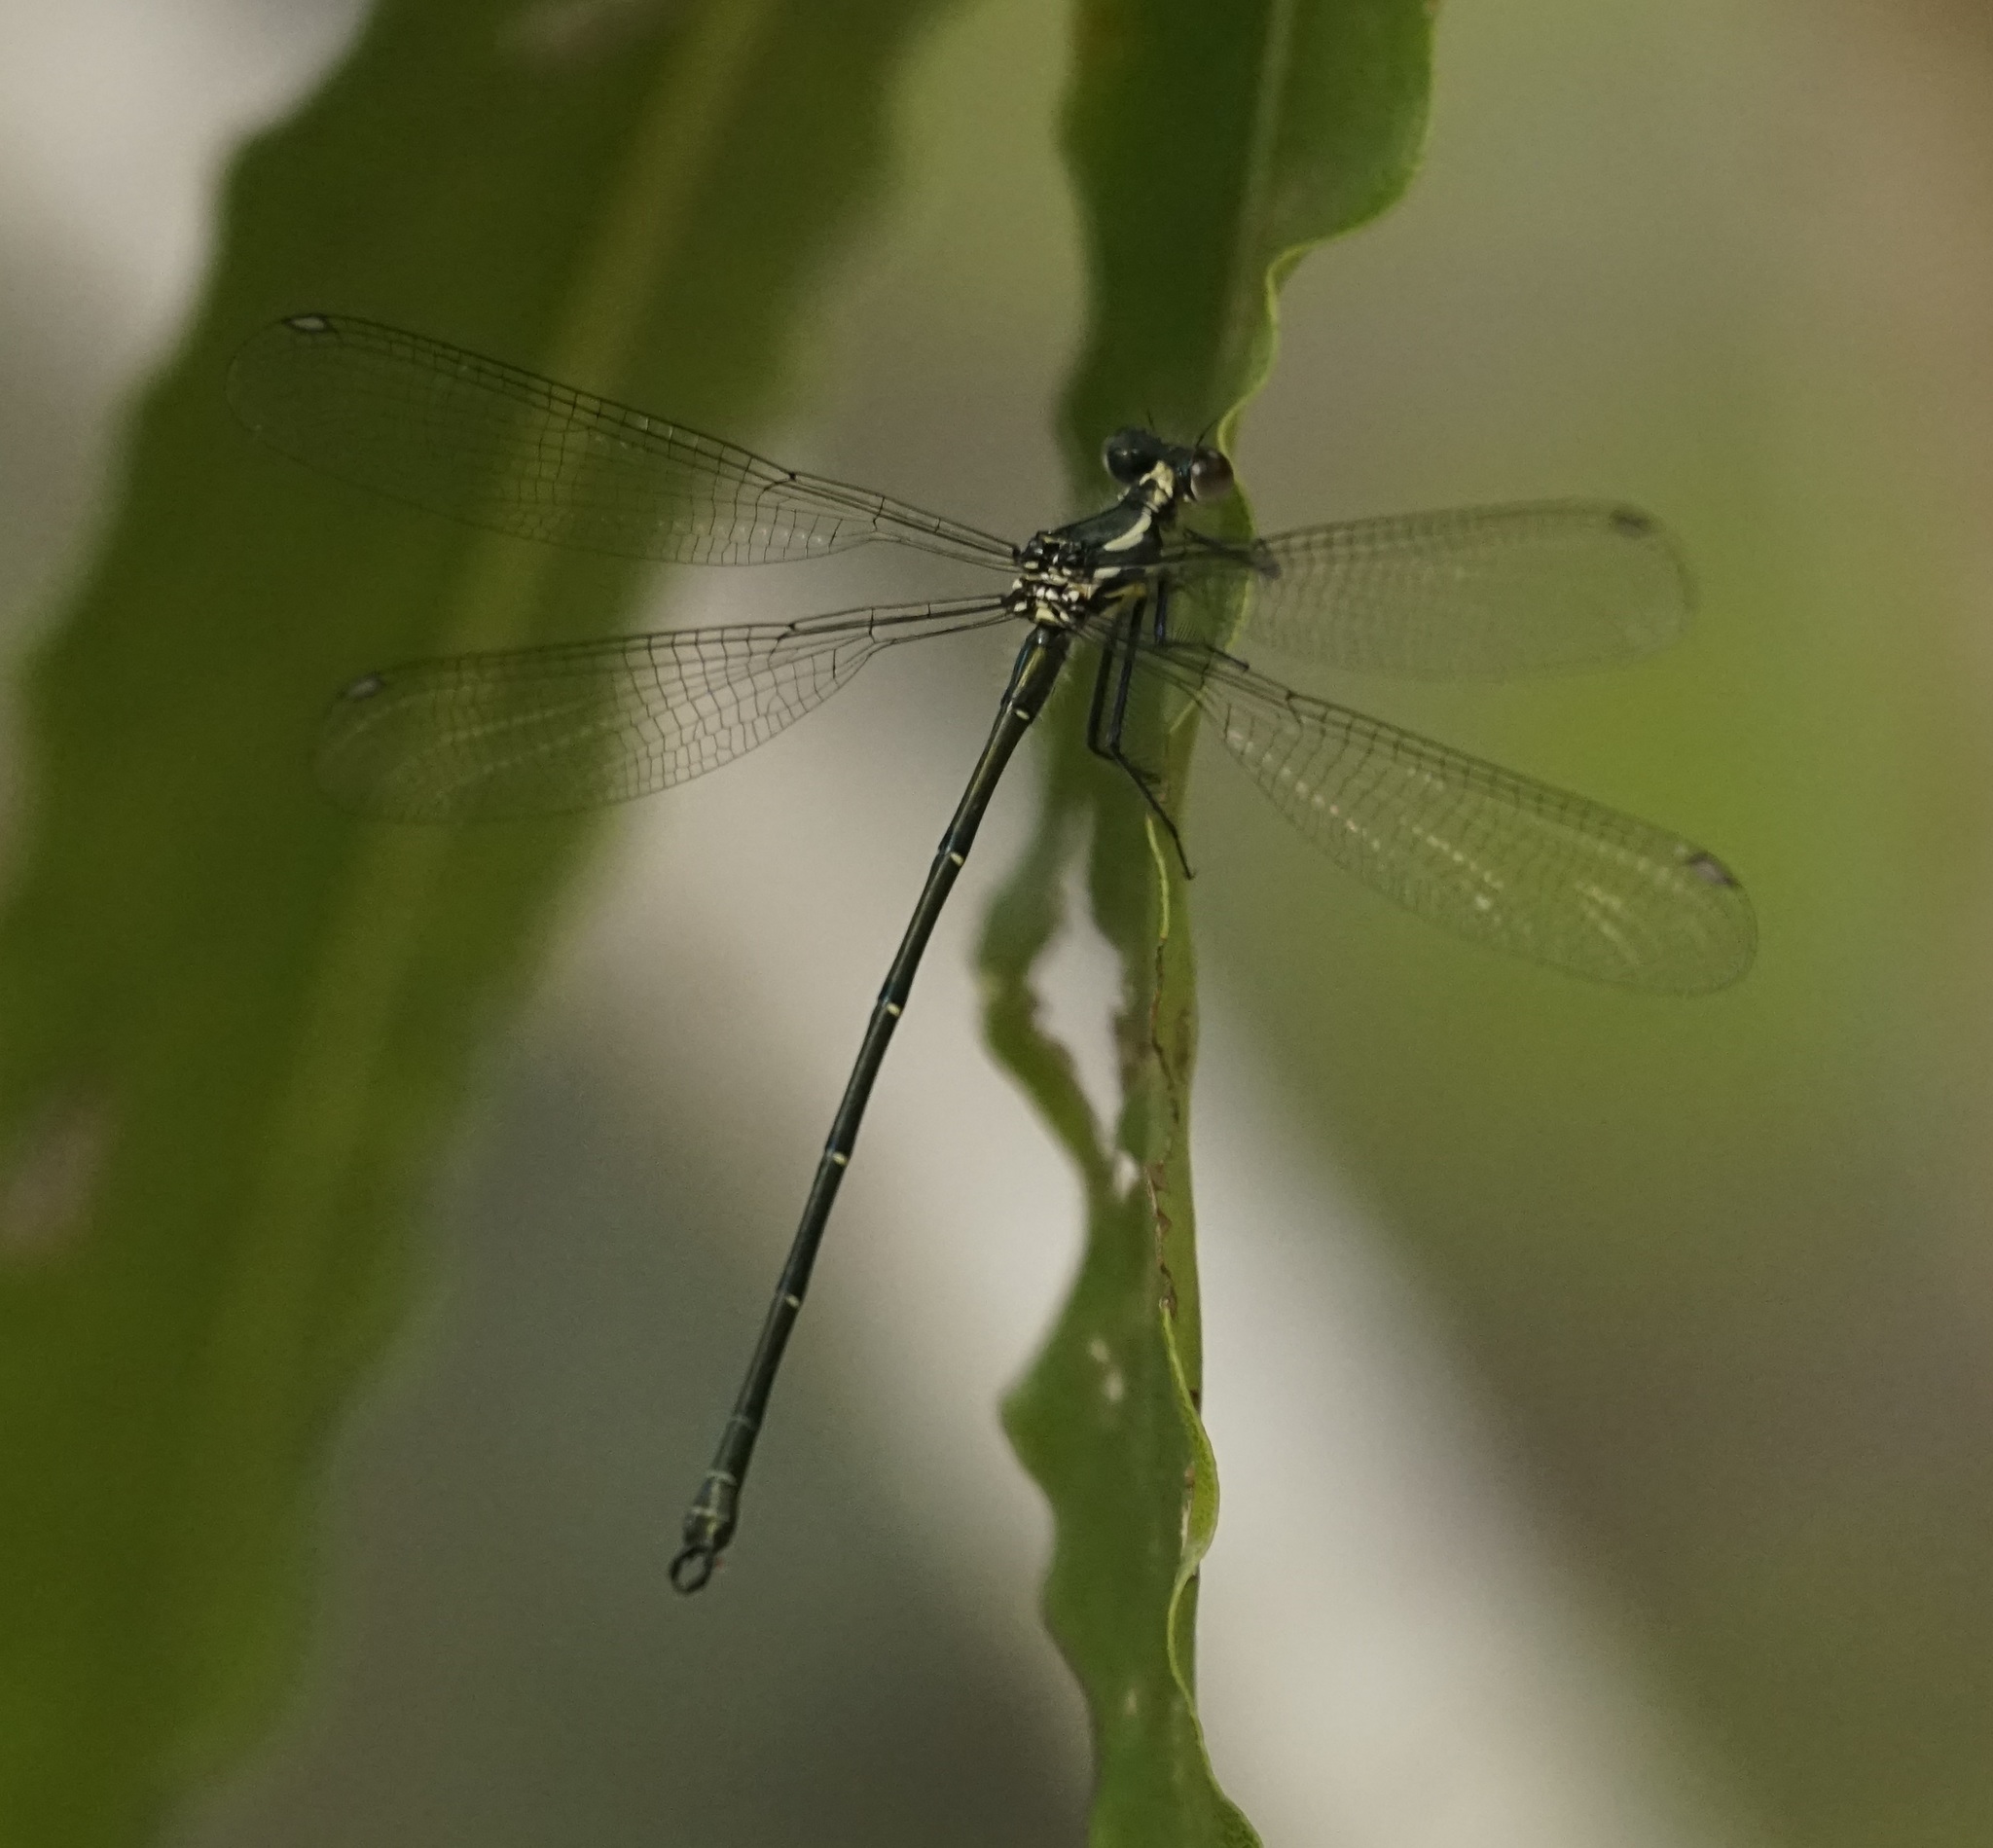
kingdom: Animalia
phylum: Arthropoda
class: Insecta
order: Odonata
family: Argiolestidae
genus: Austroargiolestes
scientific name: Austroargiolestes icteromelas
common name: Common flatwing
